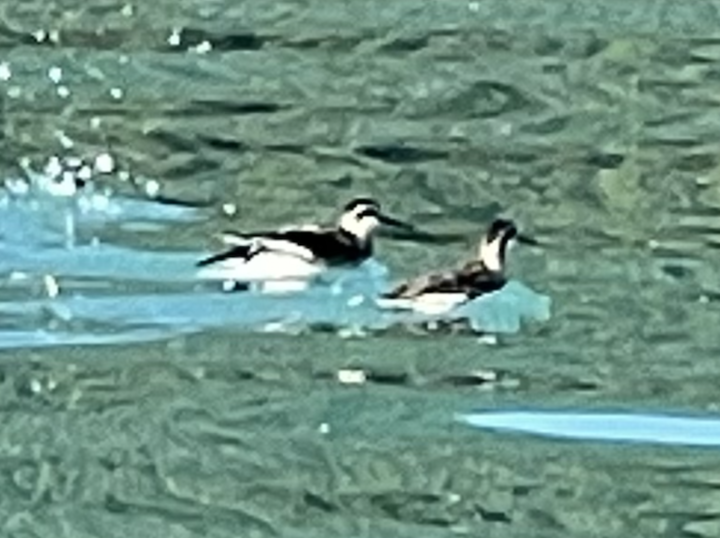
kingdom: Animalia
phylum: Chordata
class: Aves
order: Charadriiformes
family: Scolopacidae
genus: Phalaropus
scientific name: Phalaropus tricolor
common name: Wilson's phalarope
